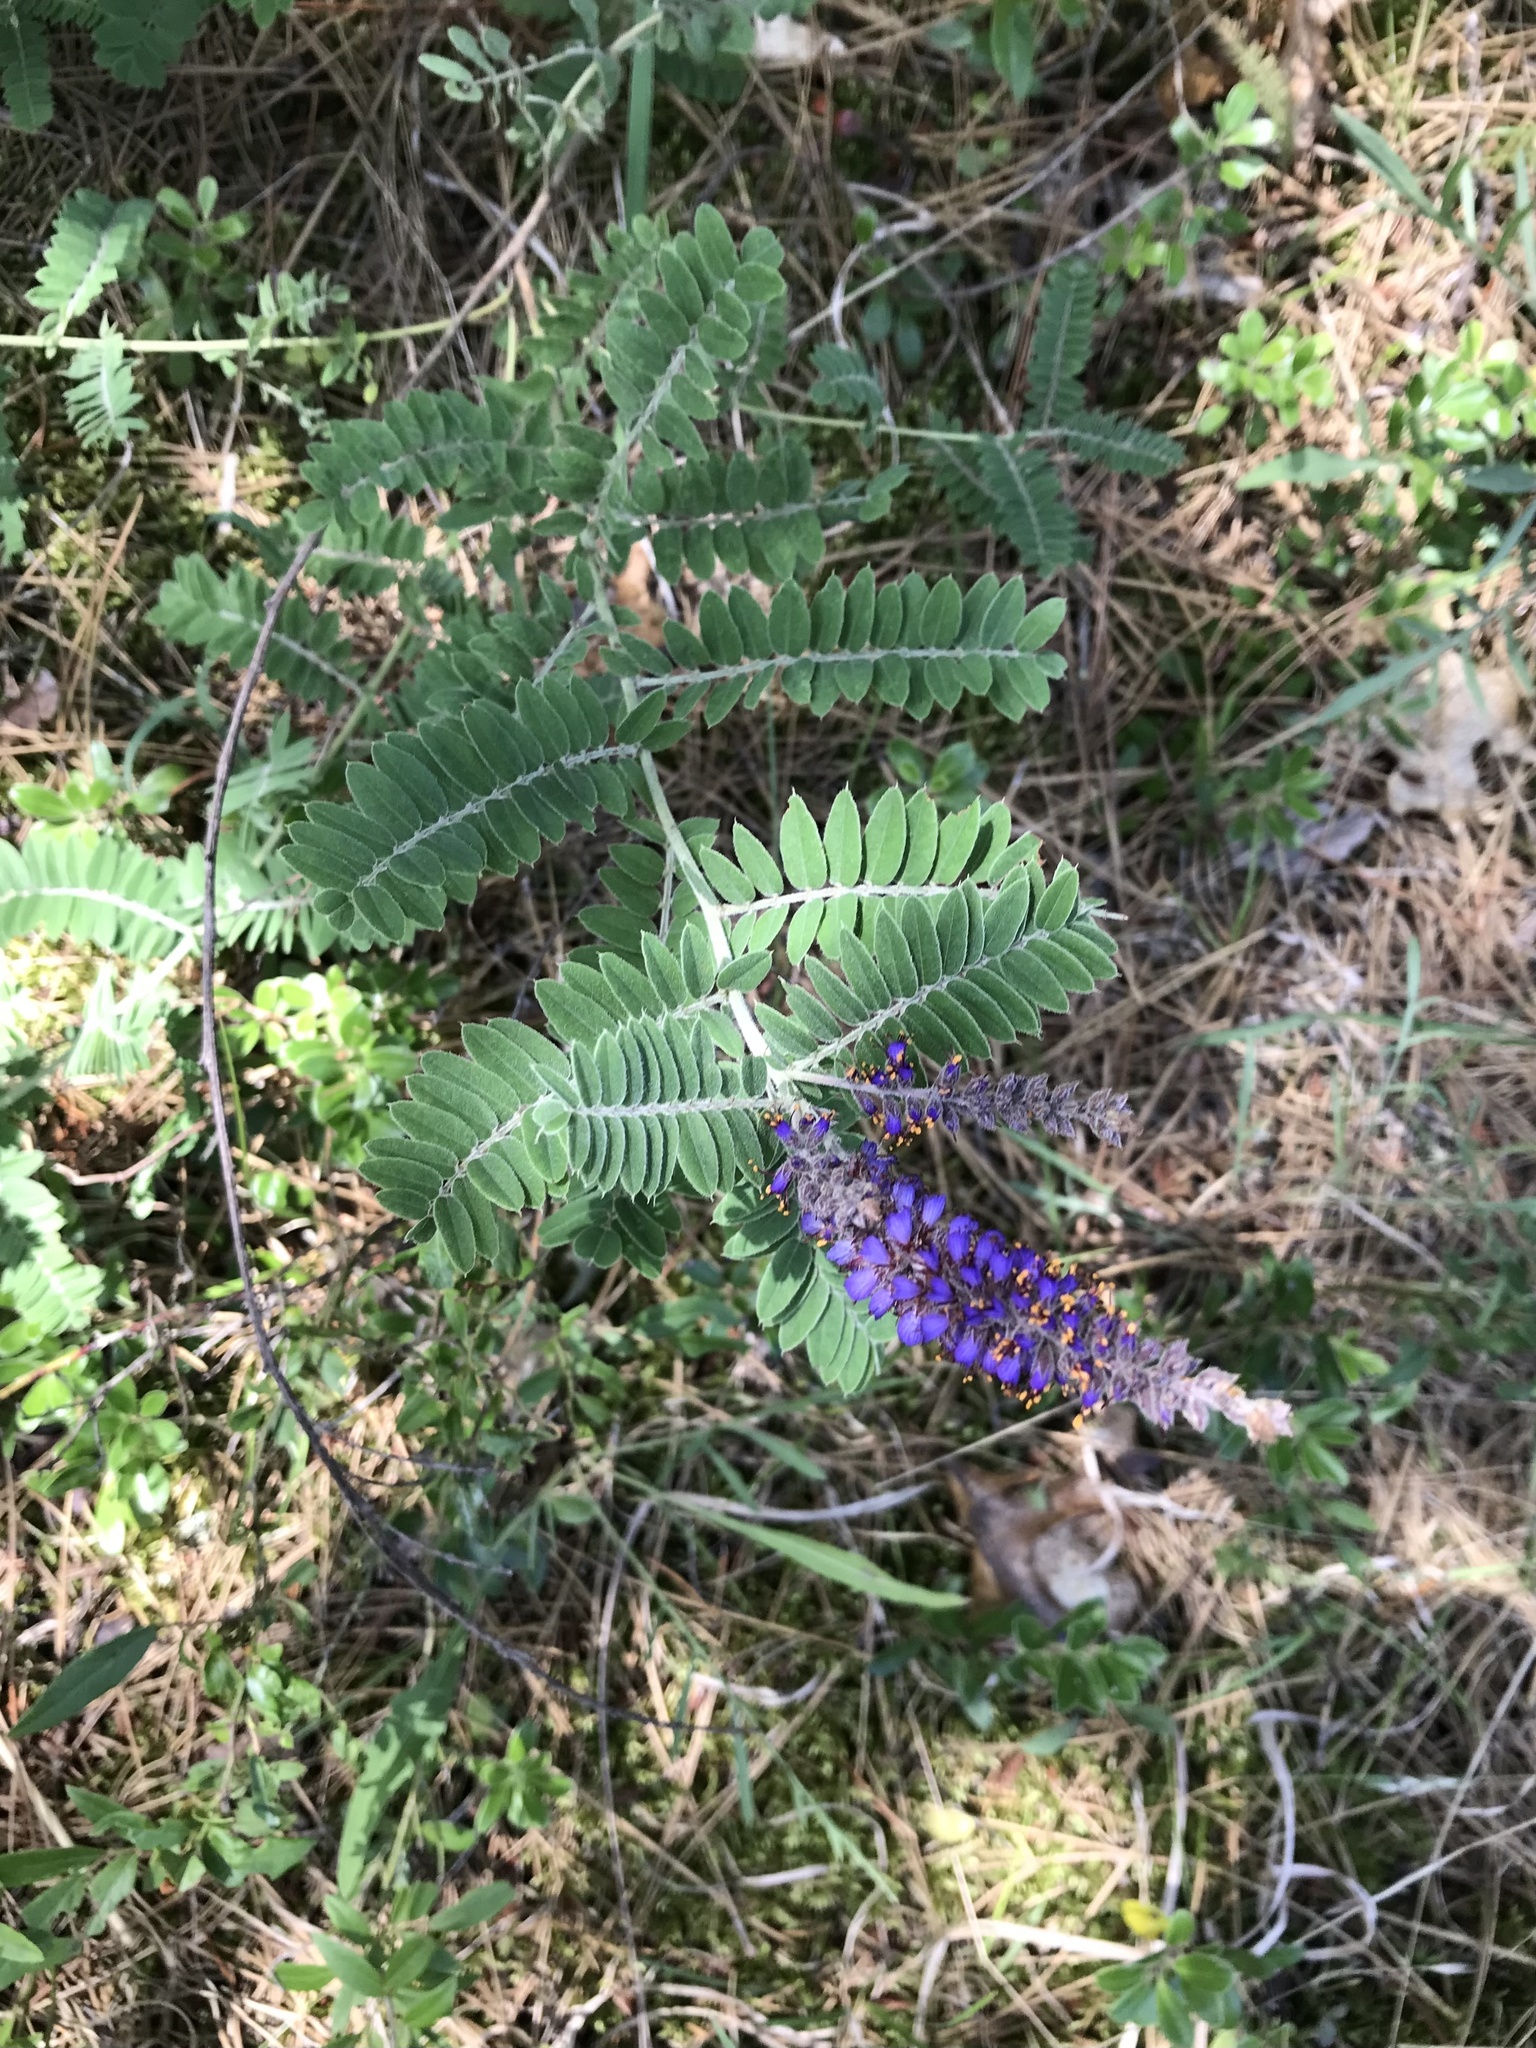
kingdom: Plantae
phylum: Tracheophyta
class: Magnoliopsida
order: Fabales
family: Fabaceae
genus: Amorpha
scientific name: Amorpha canescens
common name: Leadplant
